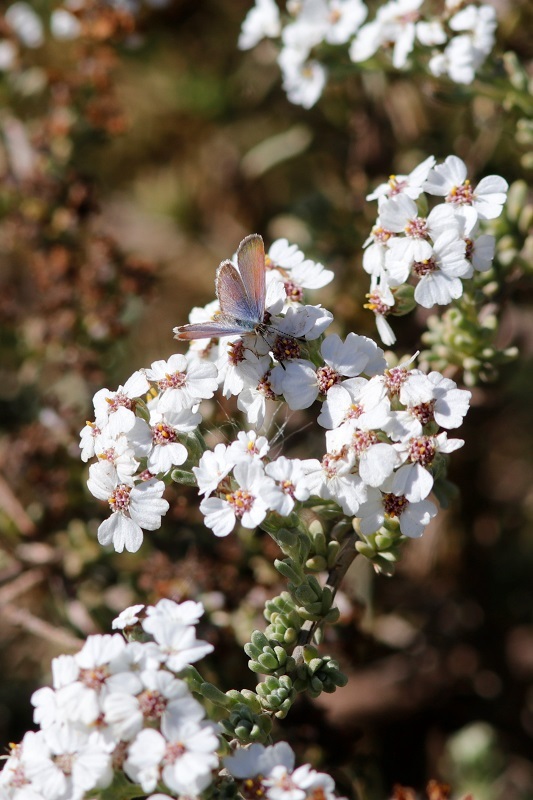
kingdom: Plantae
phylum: Tracheophyta
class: Magnoliopsida
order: Asterales
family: Asteraceae
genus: Eriocephalus
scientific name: Eriocephalus africanus
